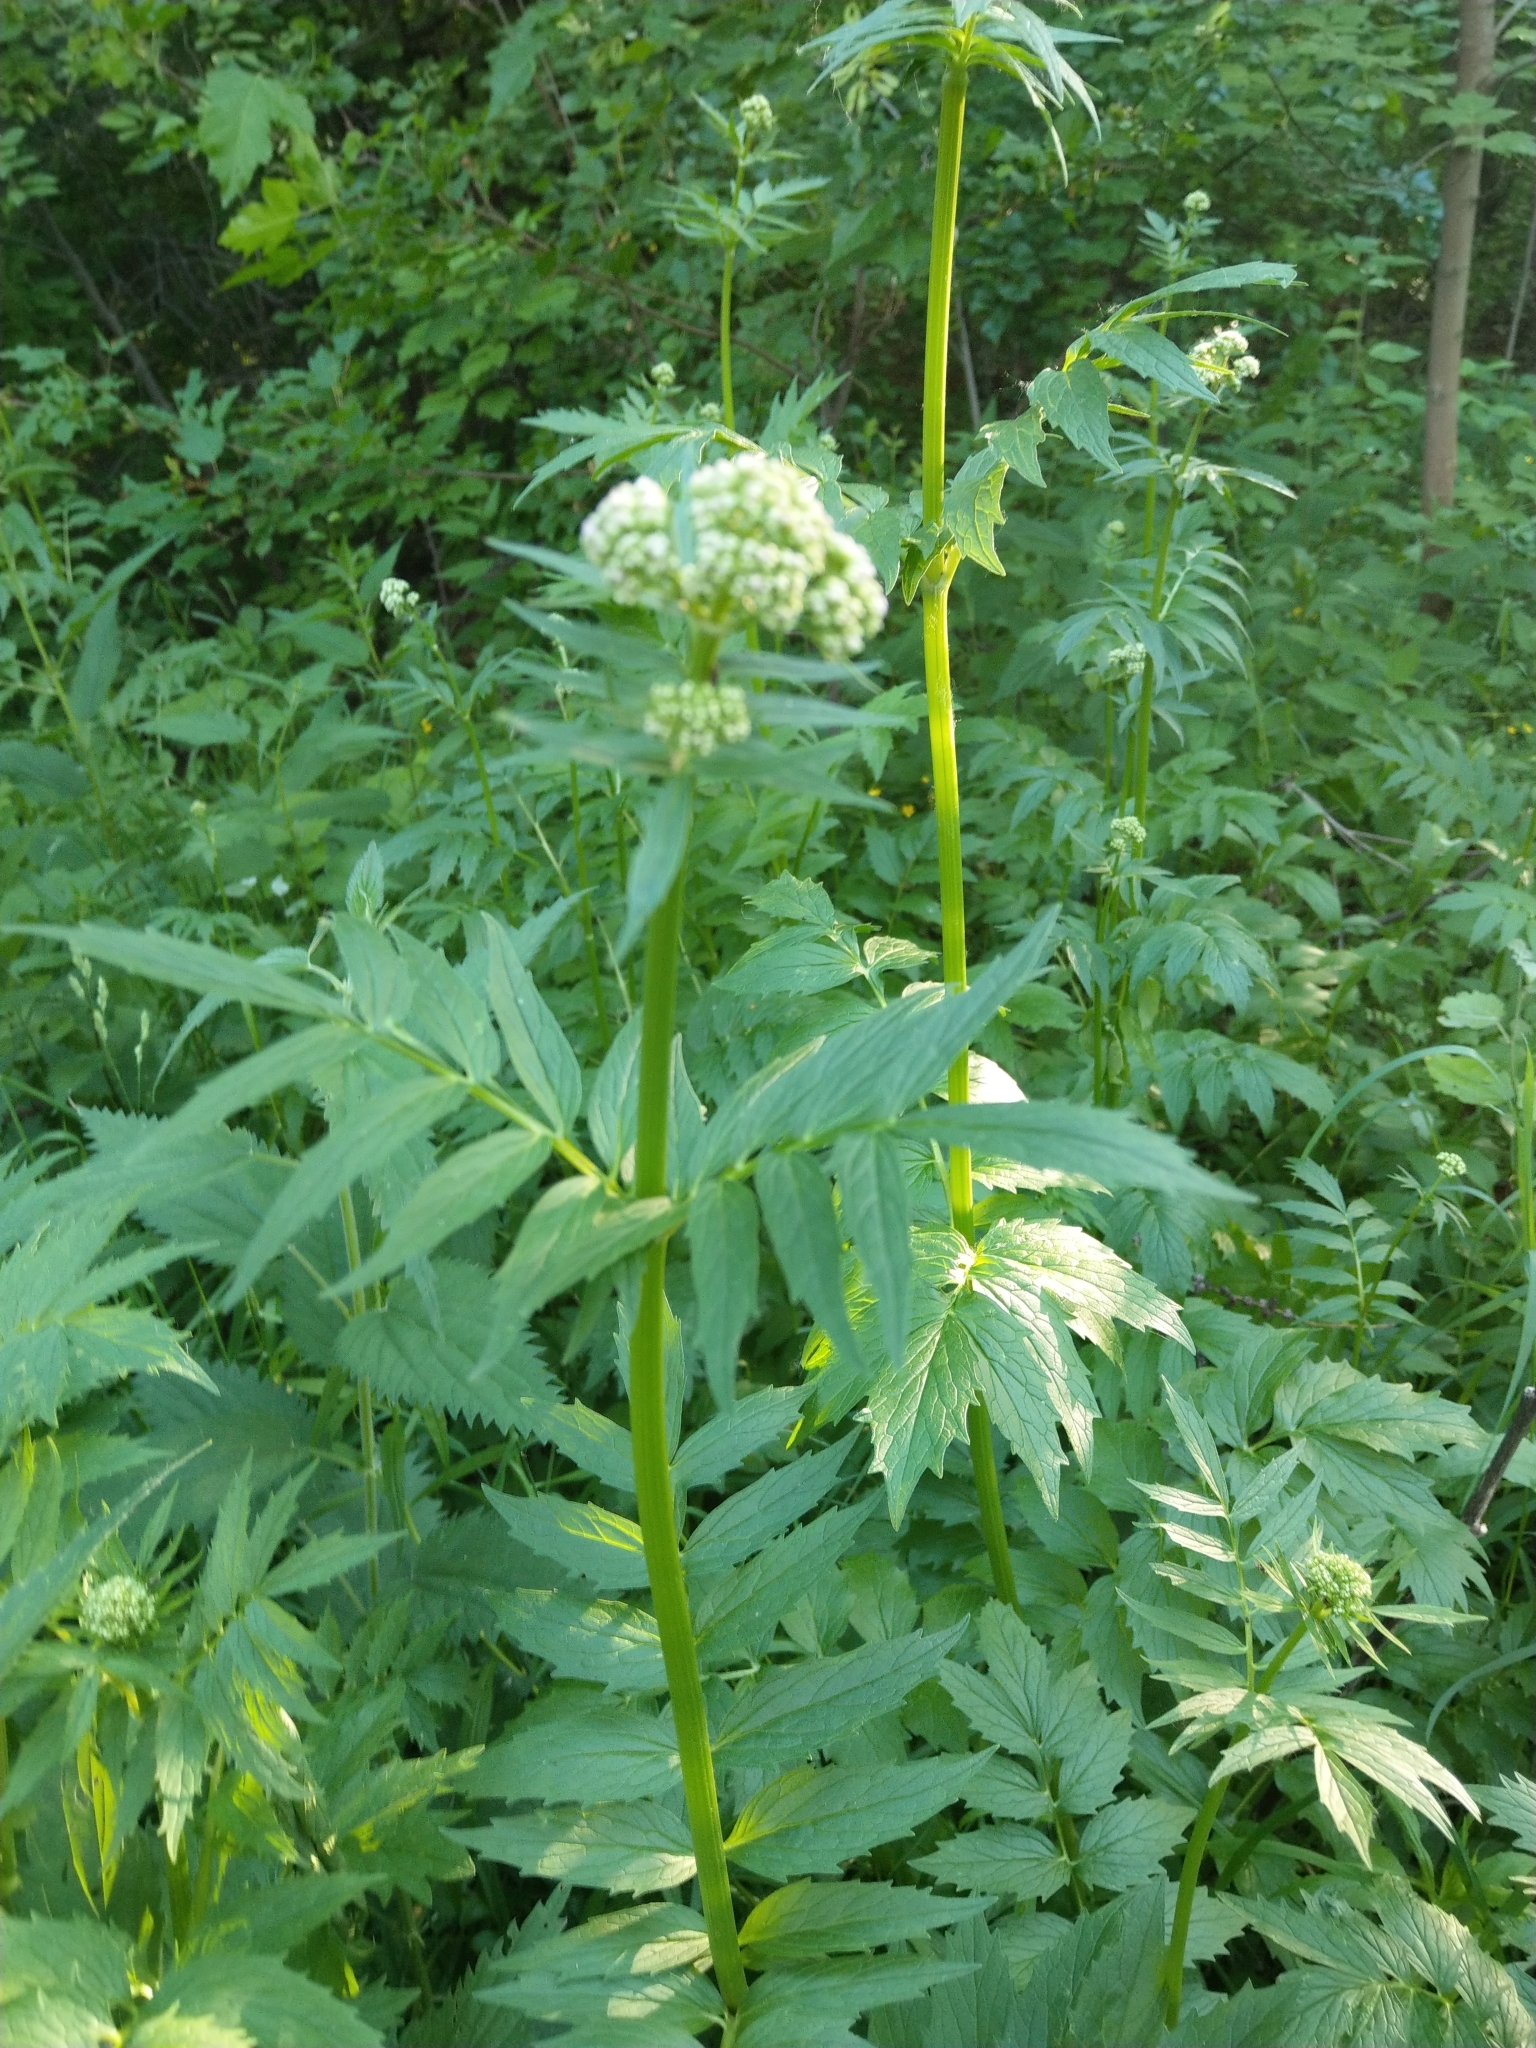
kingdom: Plantae
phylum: Tracheophyta
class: Magnoliopsida
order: Dipsacales
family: Caprifoliaceae
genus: Valeriana
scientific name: Valeriana officinalis
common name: Common valerian
